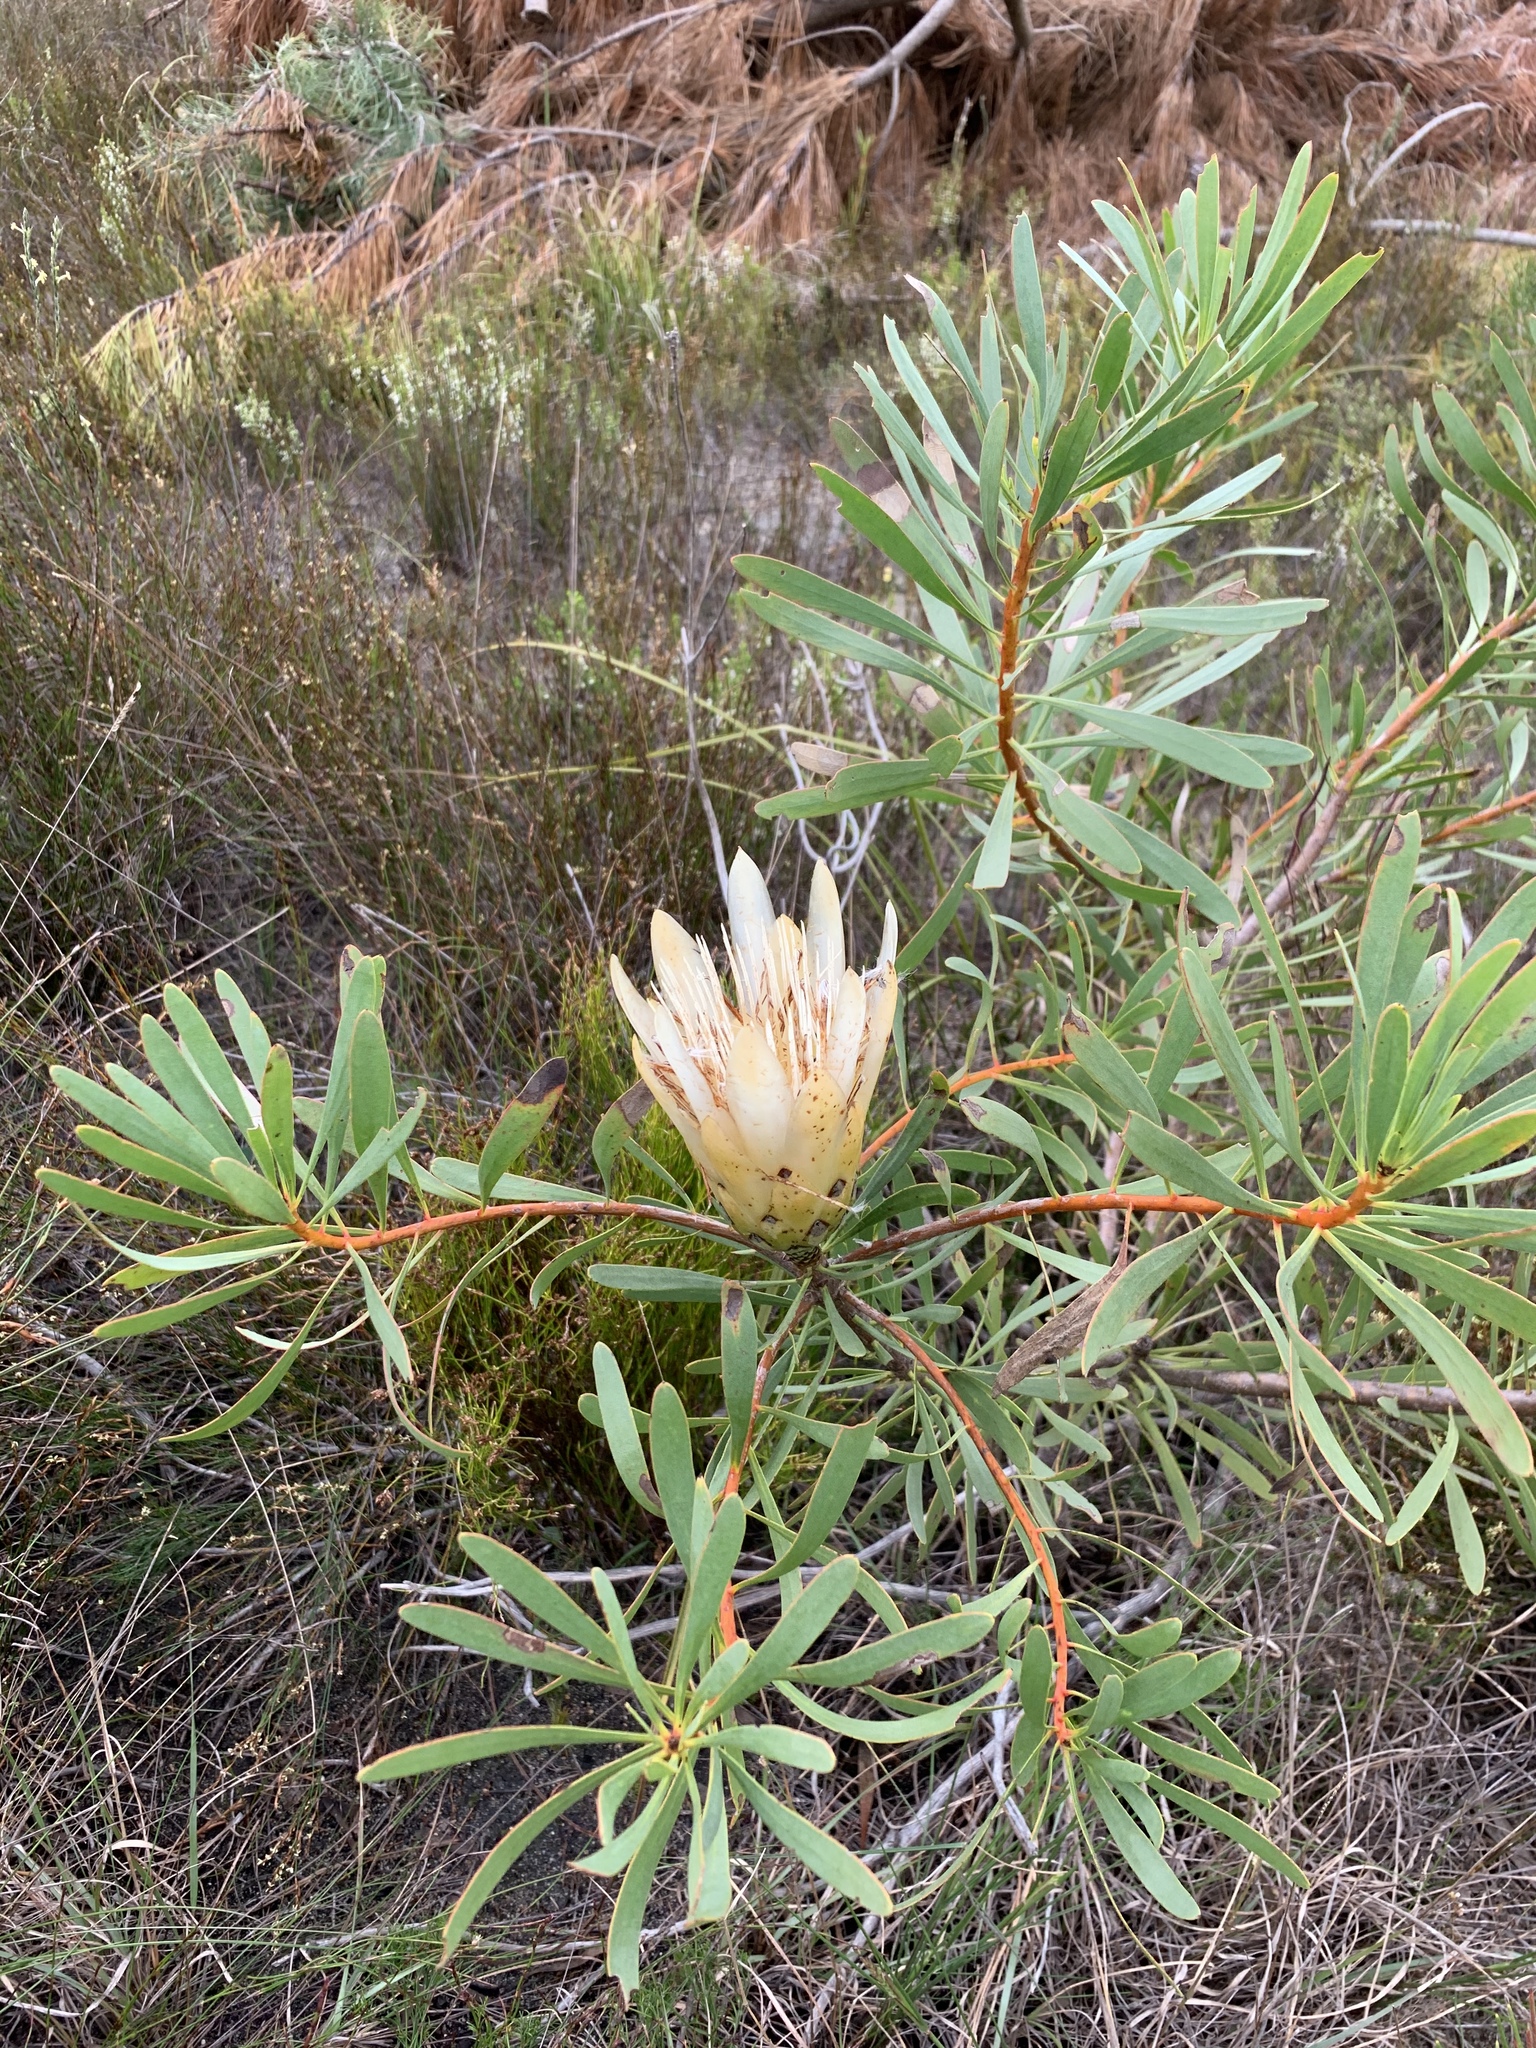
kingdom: Plantae
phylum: Tracheophyta
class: Magnoliopsida
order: Proteales
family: Proteaceae
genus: Protea
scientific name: Protea repens
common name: Sugarbush
